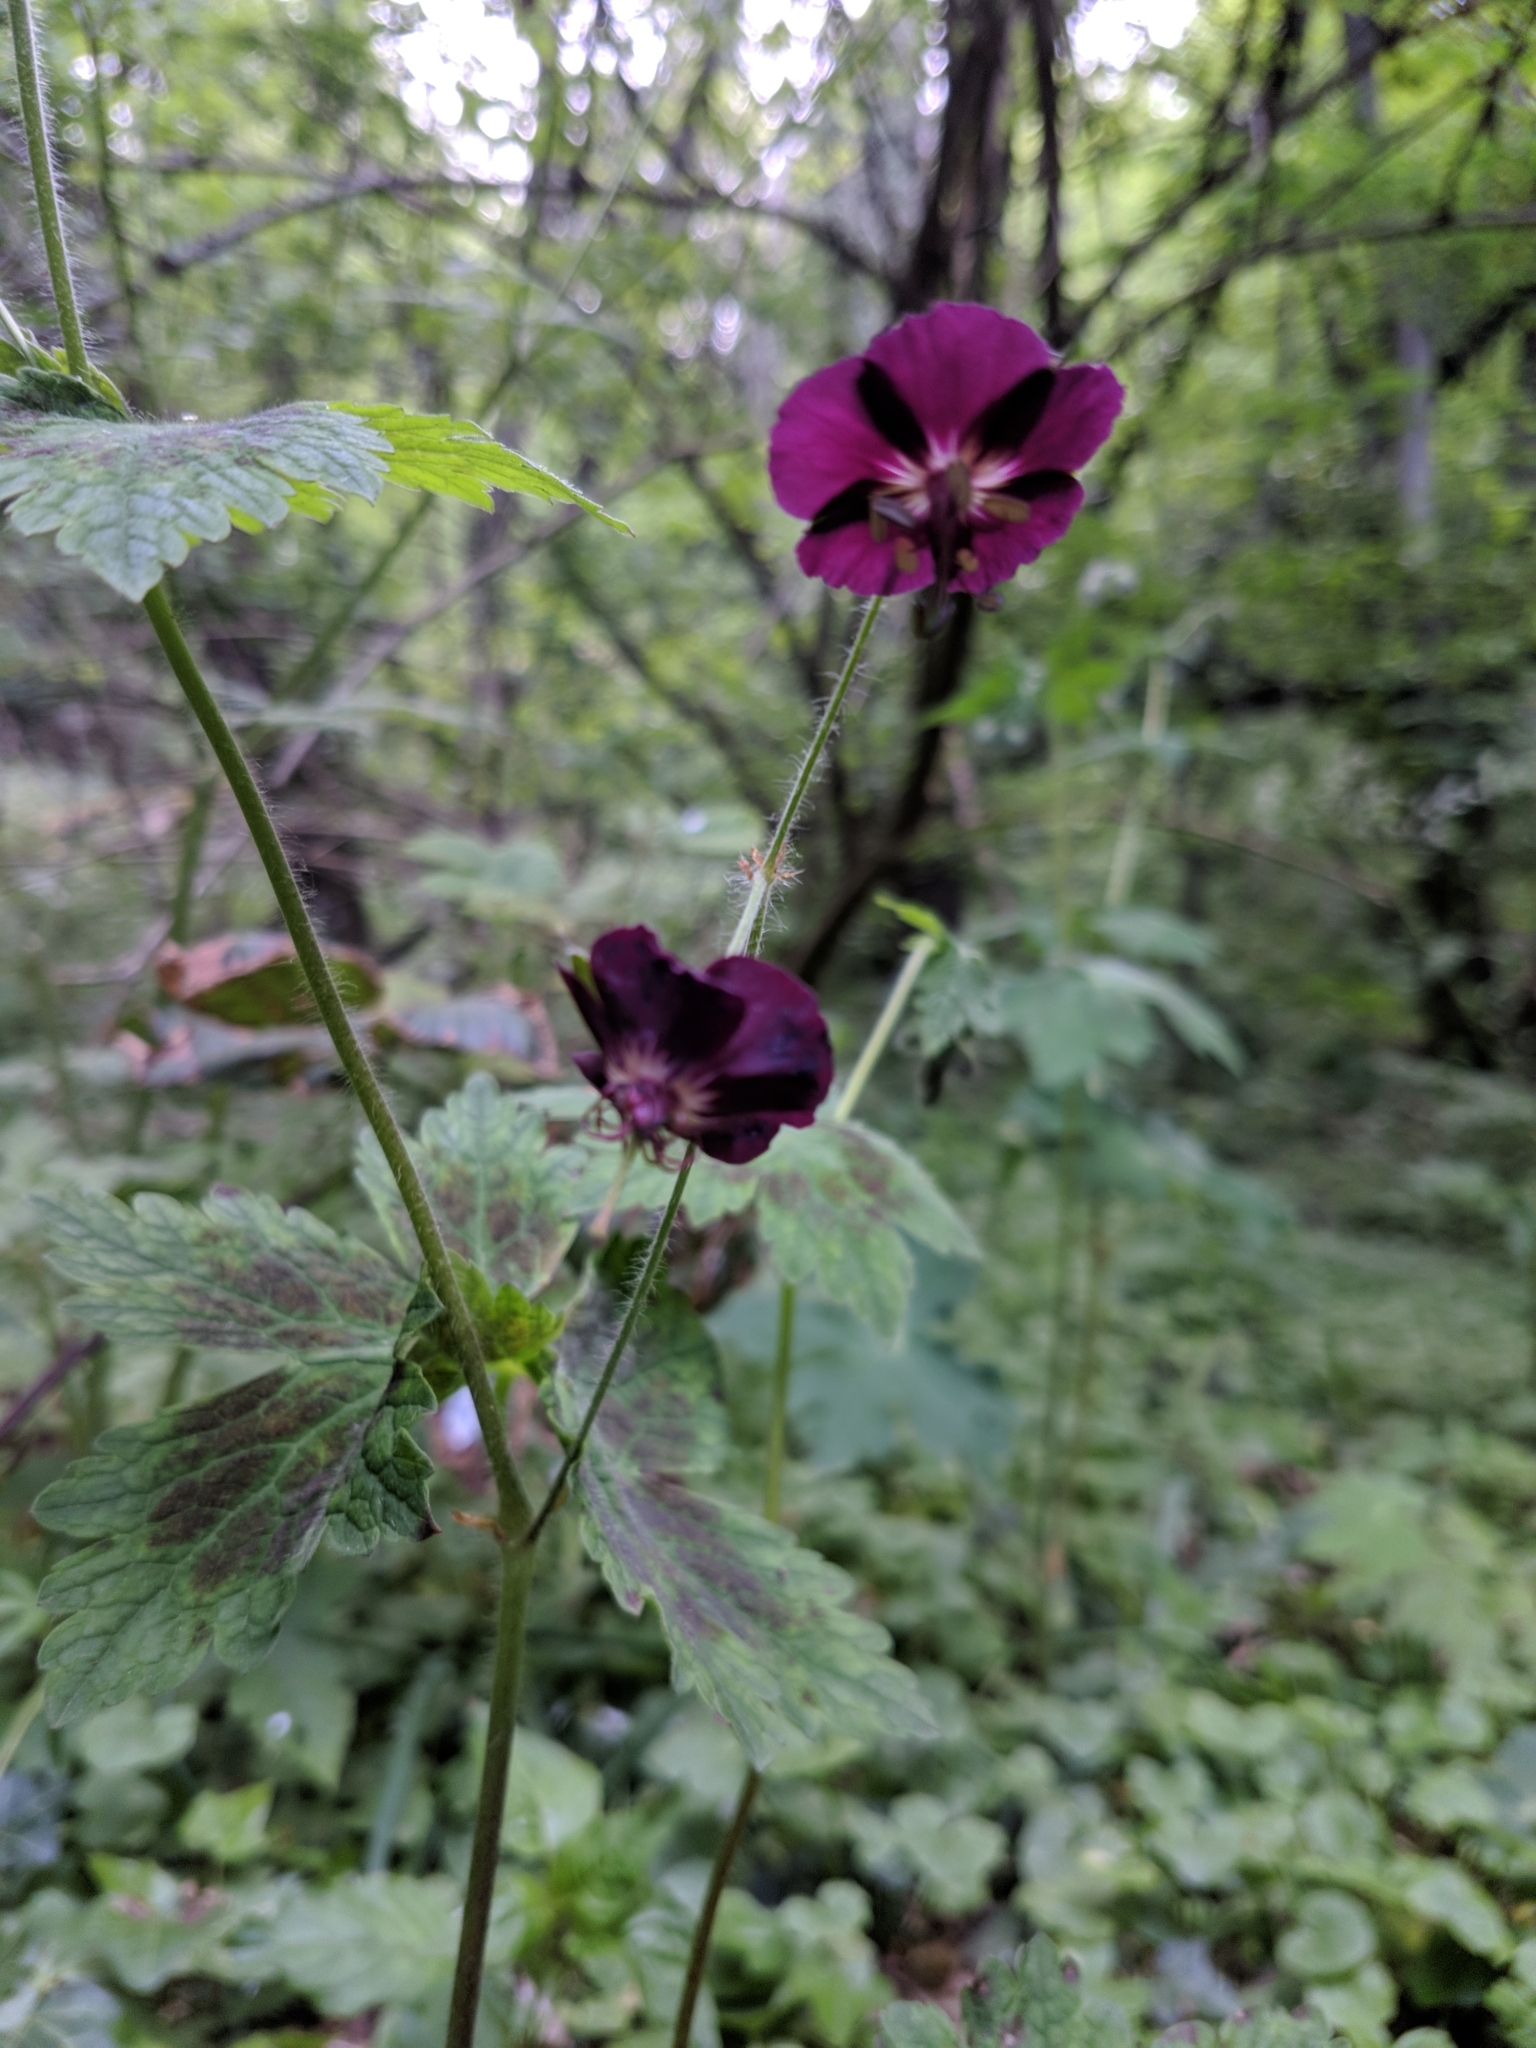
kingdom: Plantae
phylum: Tracheophyta
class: Magnoliopsida
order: Geraniales
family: Geraniaceae
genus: Geranium
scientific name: Geranium phaeum
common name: Dusky crane's-bill
